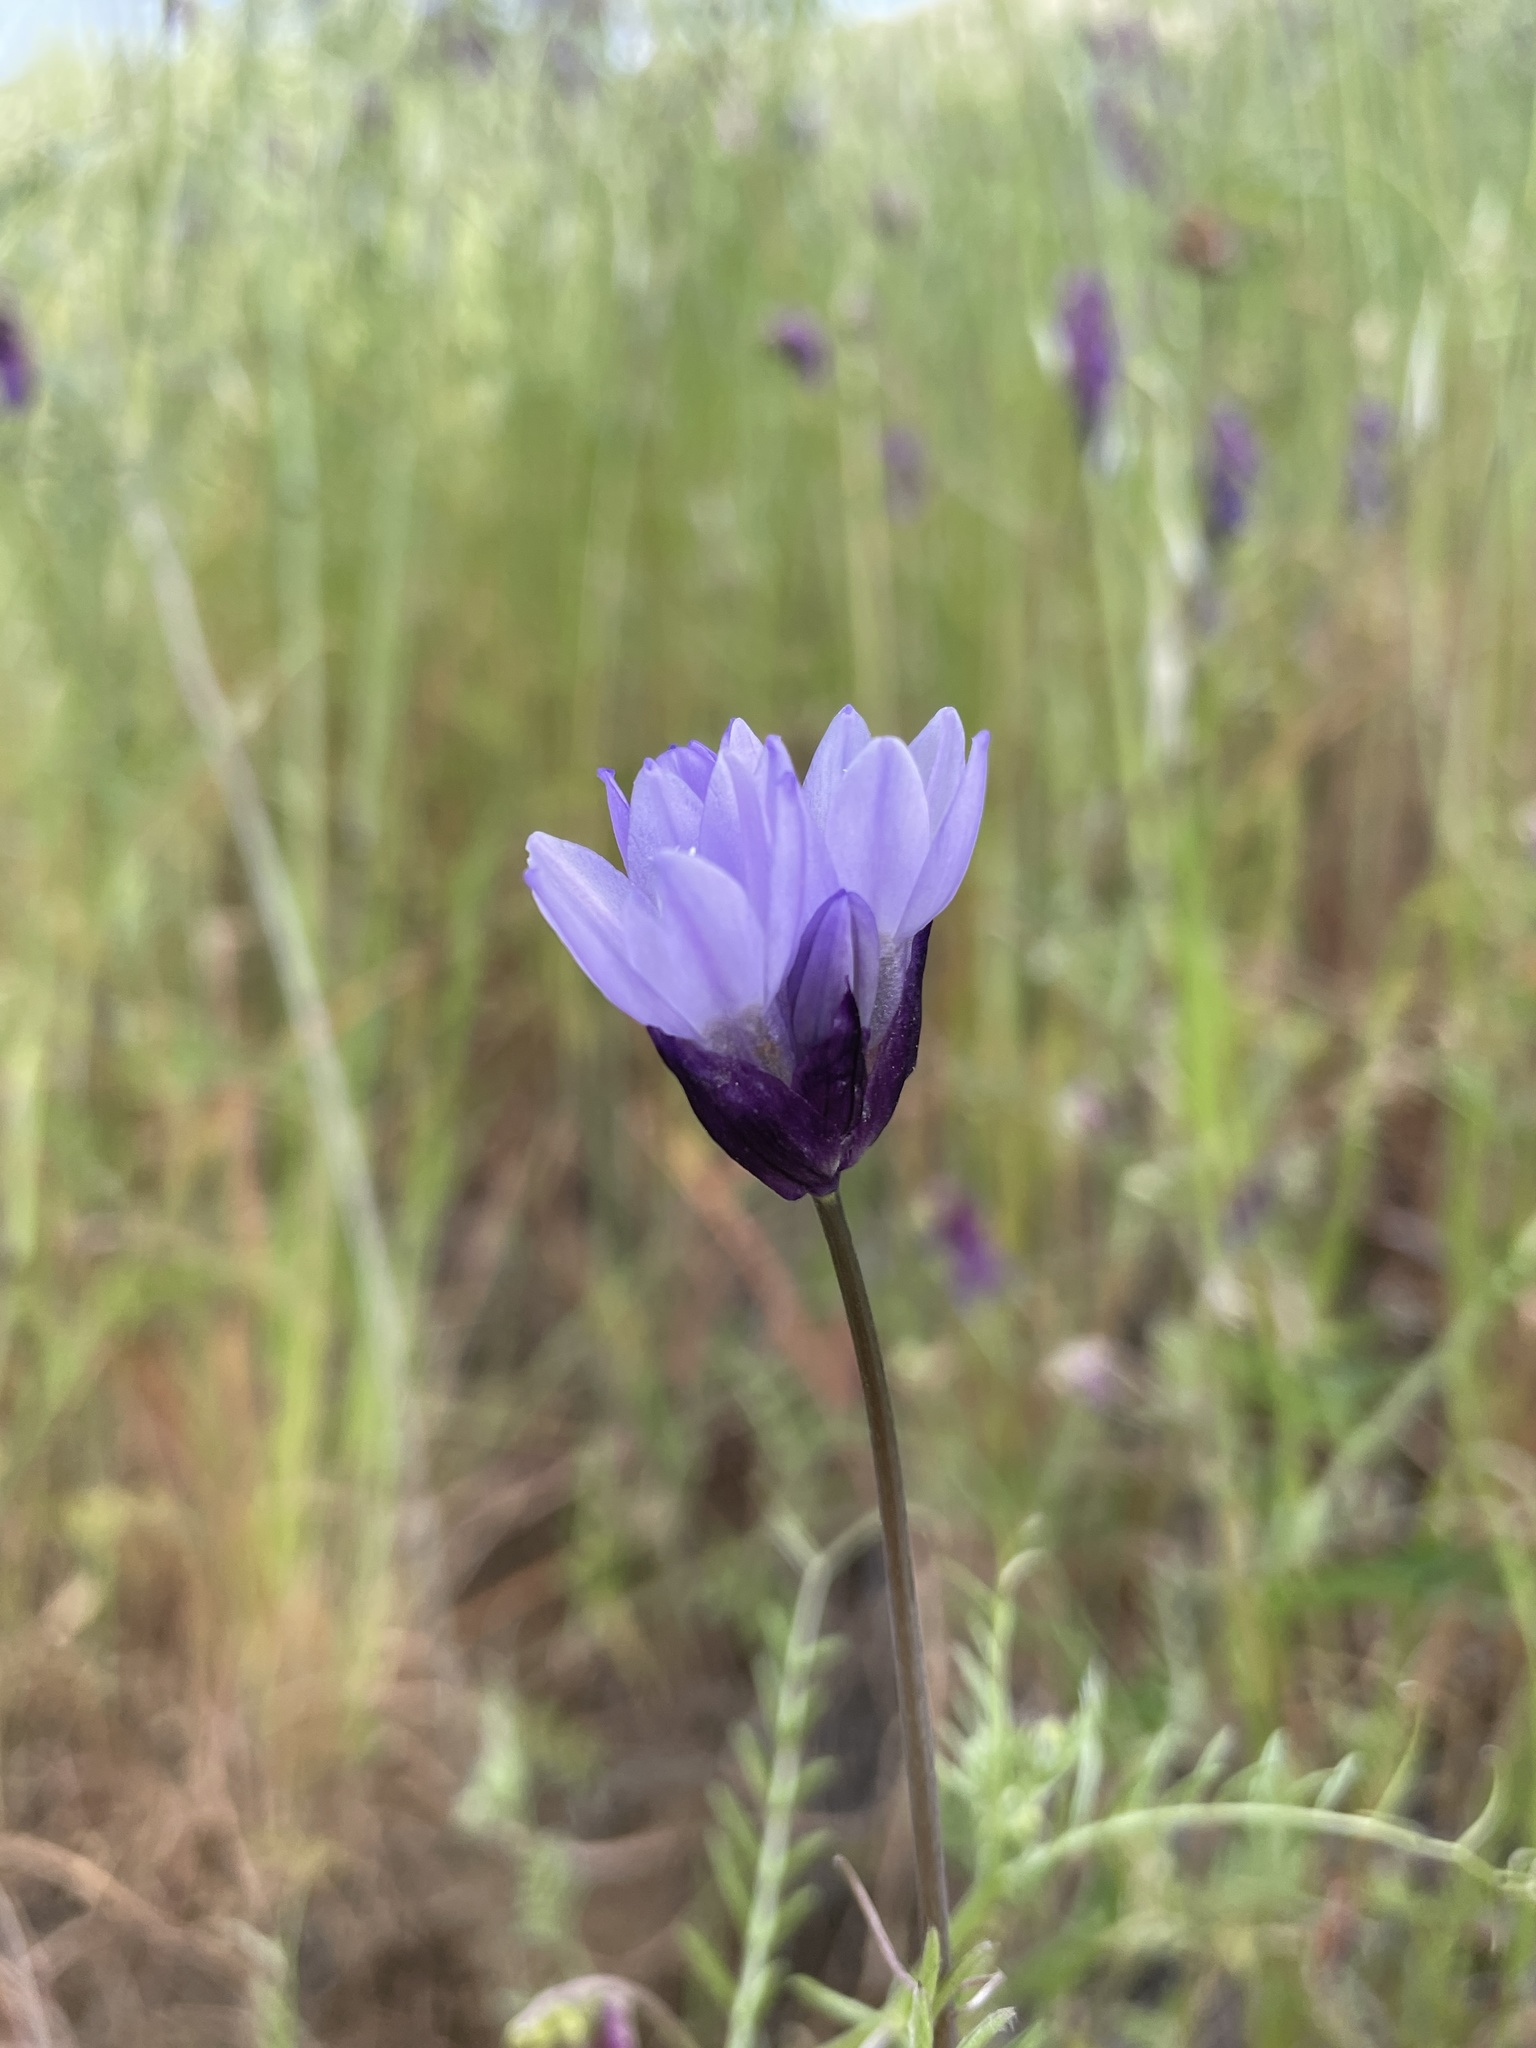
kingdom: Plantae
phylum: Tracheophyta
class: Liliopsida
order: Asparagales
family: Asparagaceae
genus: Dipterostemon
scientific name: Dipterostemon capitatus
